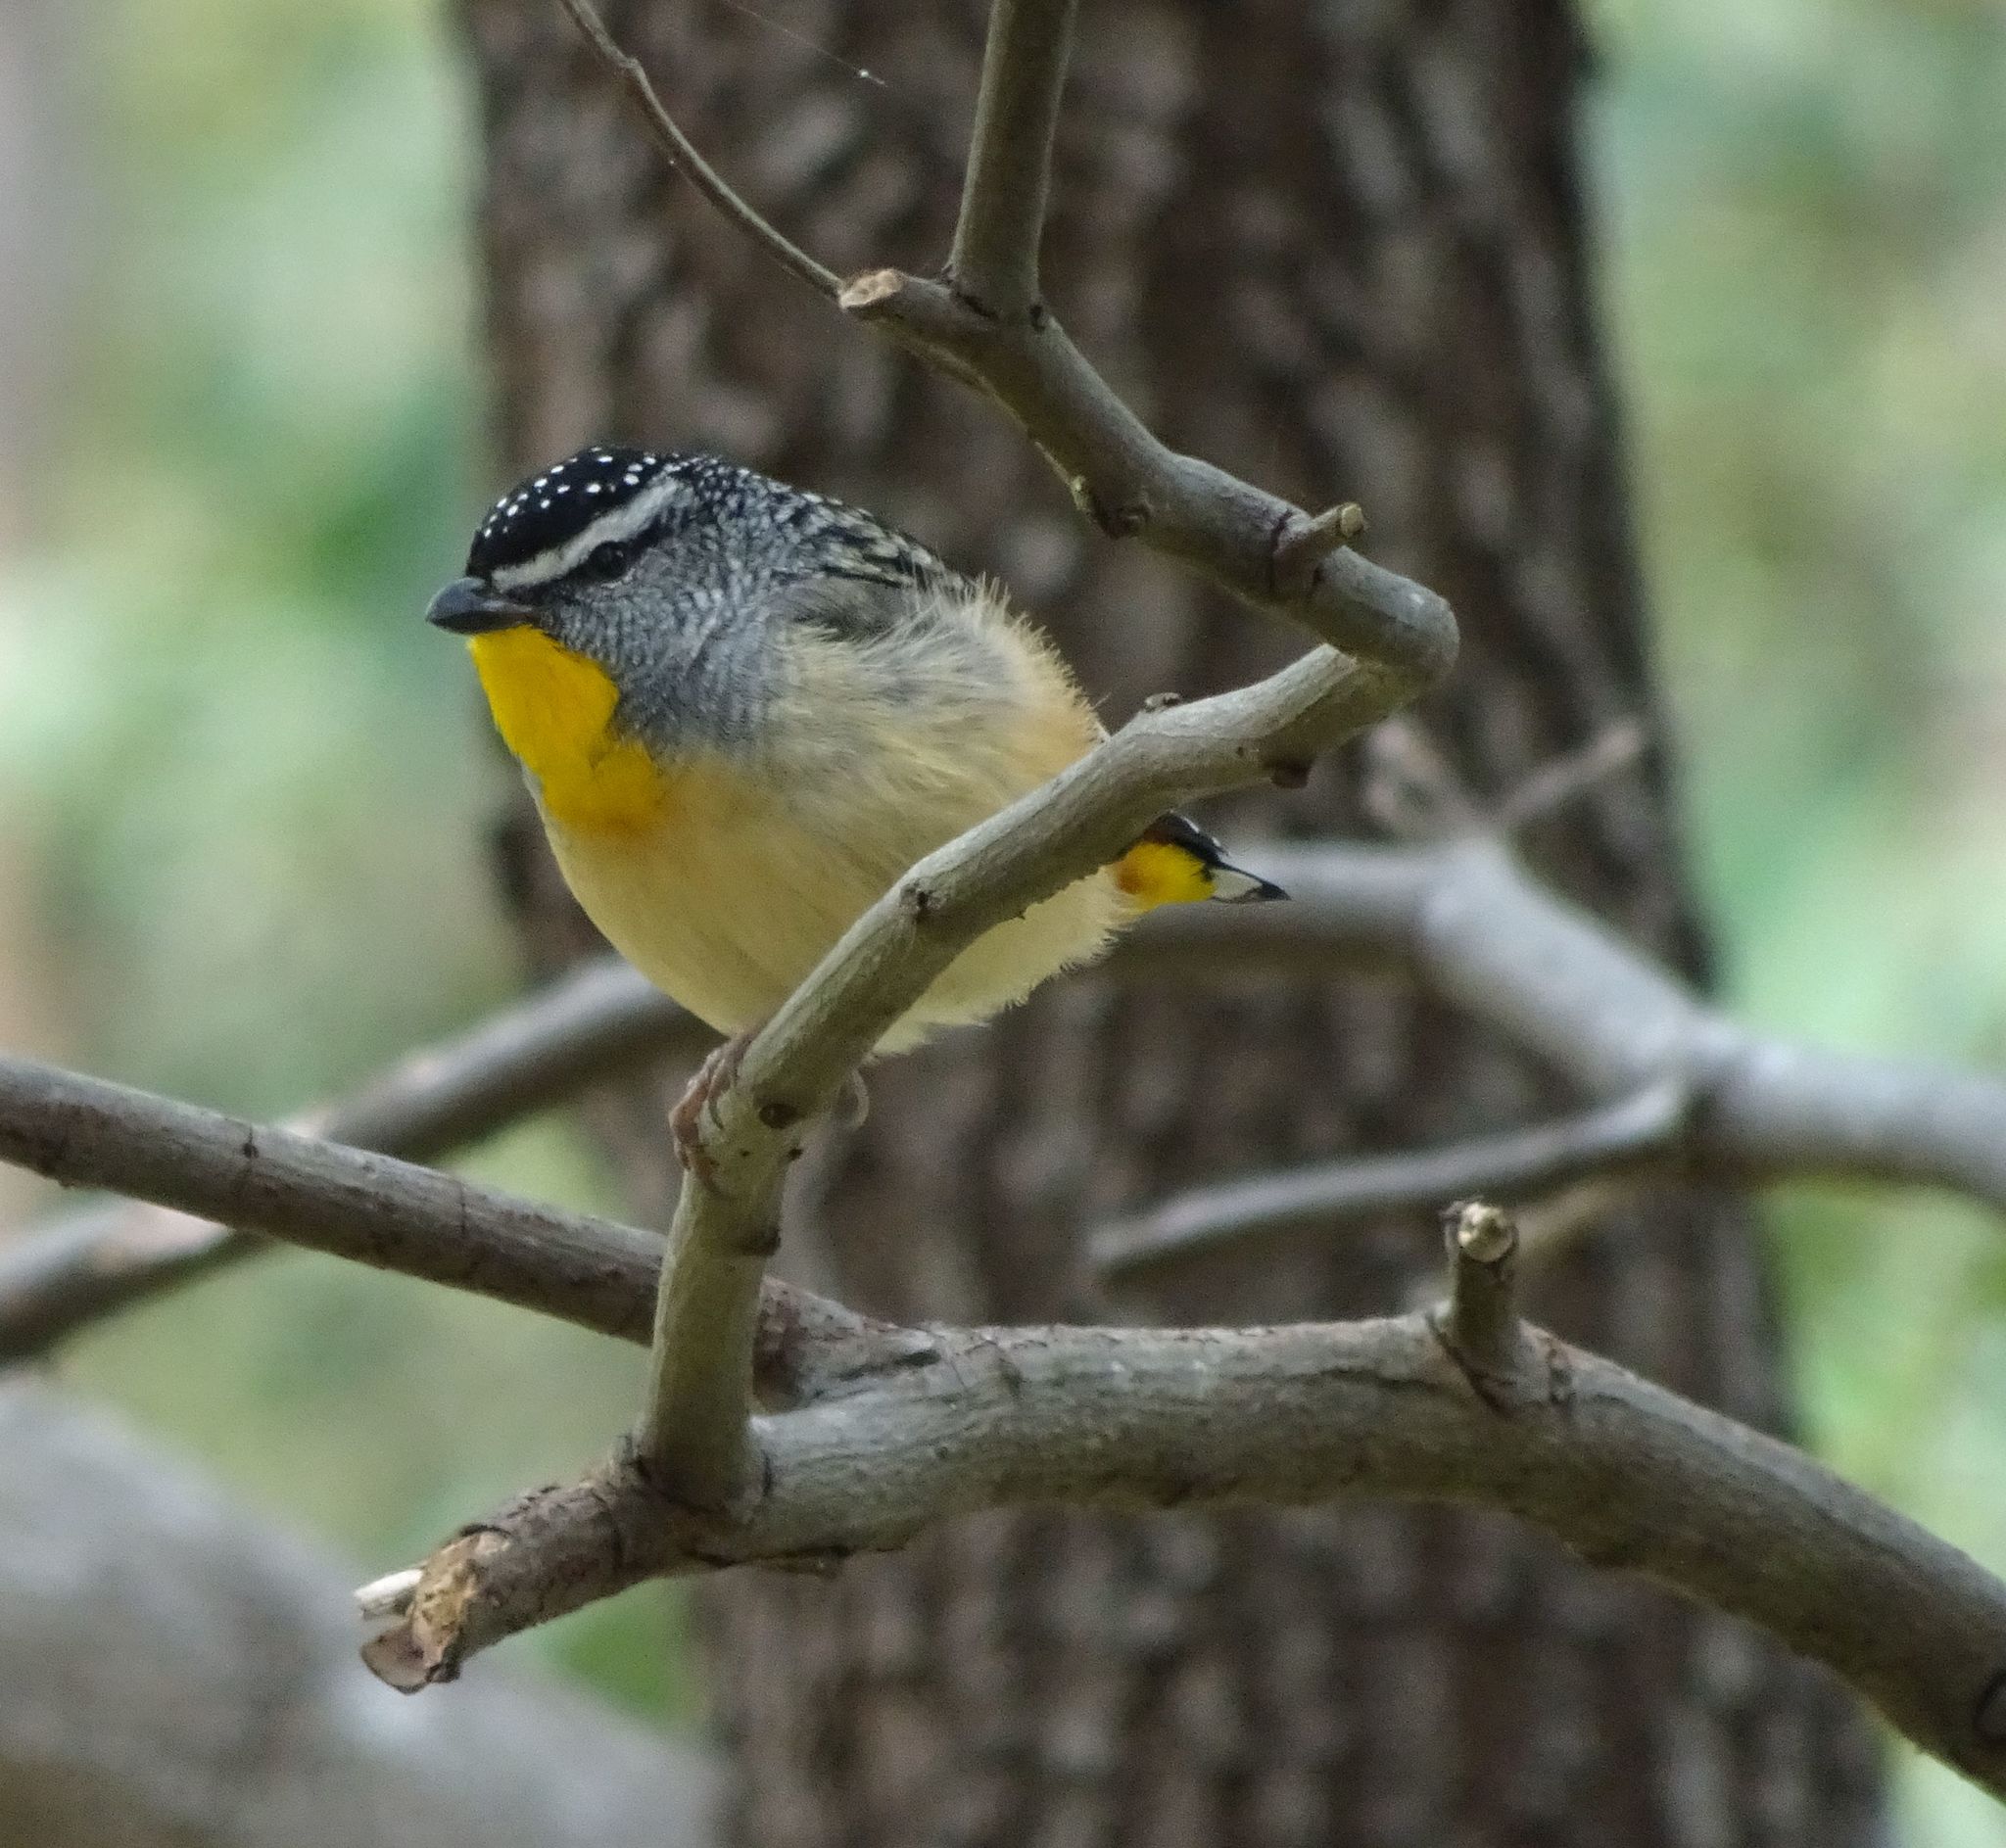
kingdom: Animalia
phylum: Chordata
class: Aves
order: Passeriformes
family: Pardalotidae
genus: Pardalotus
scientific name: Pardalotus punctatus
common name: Spotted pardalote
